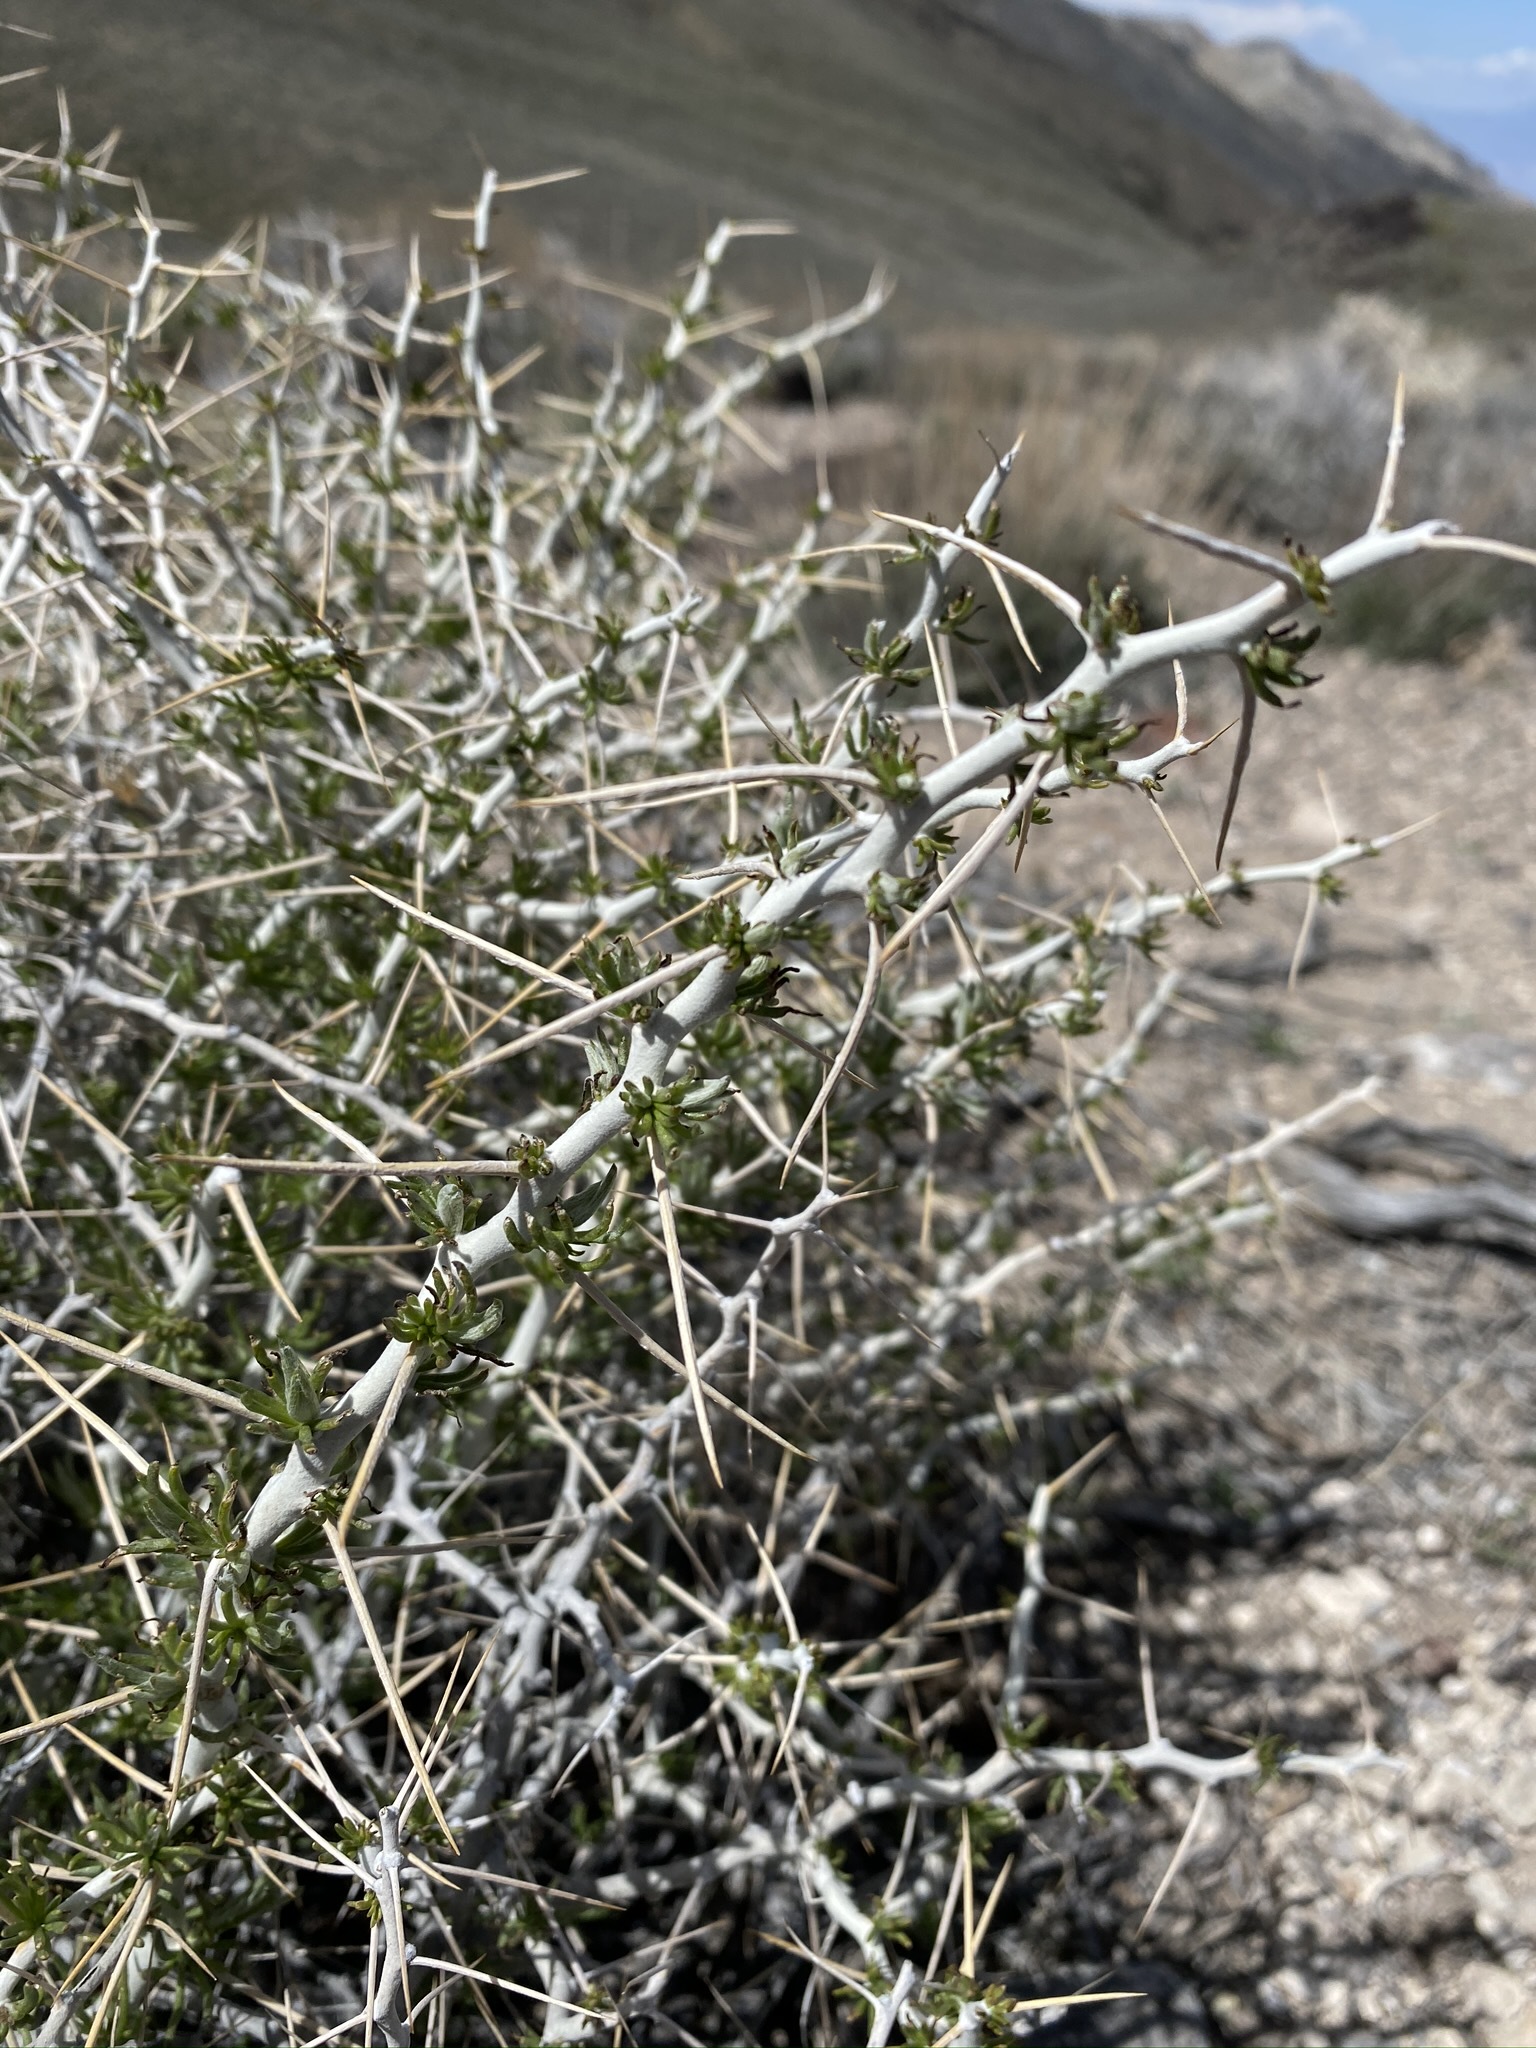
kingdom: Plantae
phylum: Tracheophyta
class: Magnoliopsida
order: Asterales
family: Asteraceae
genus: Tetradymia
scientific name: Tetradymia axillaris
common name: Long-spine horsebrush
